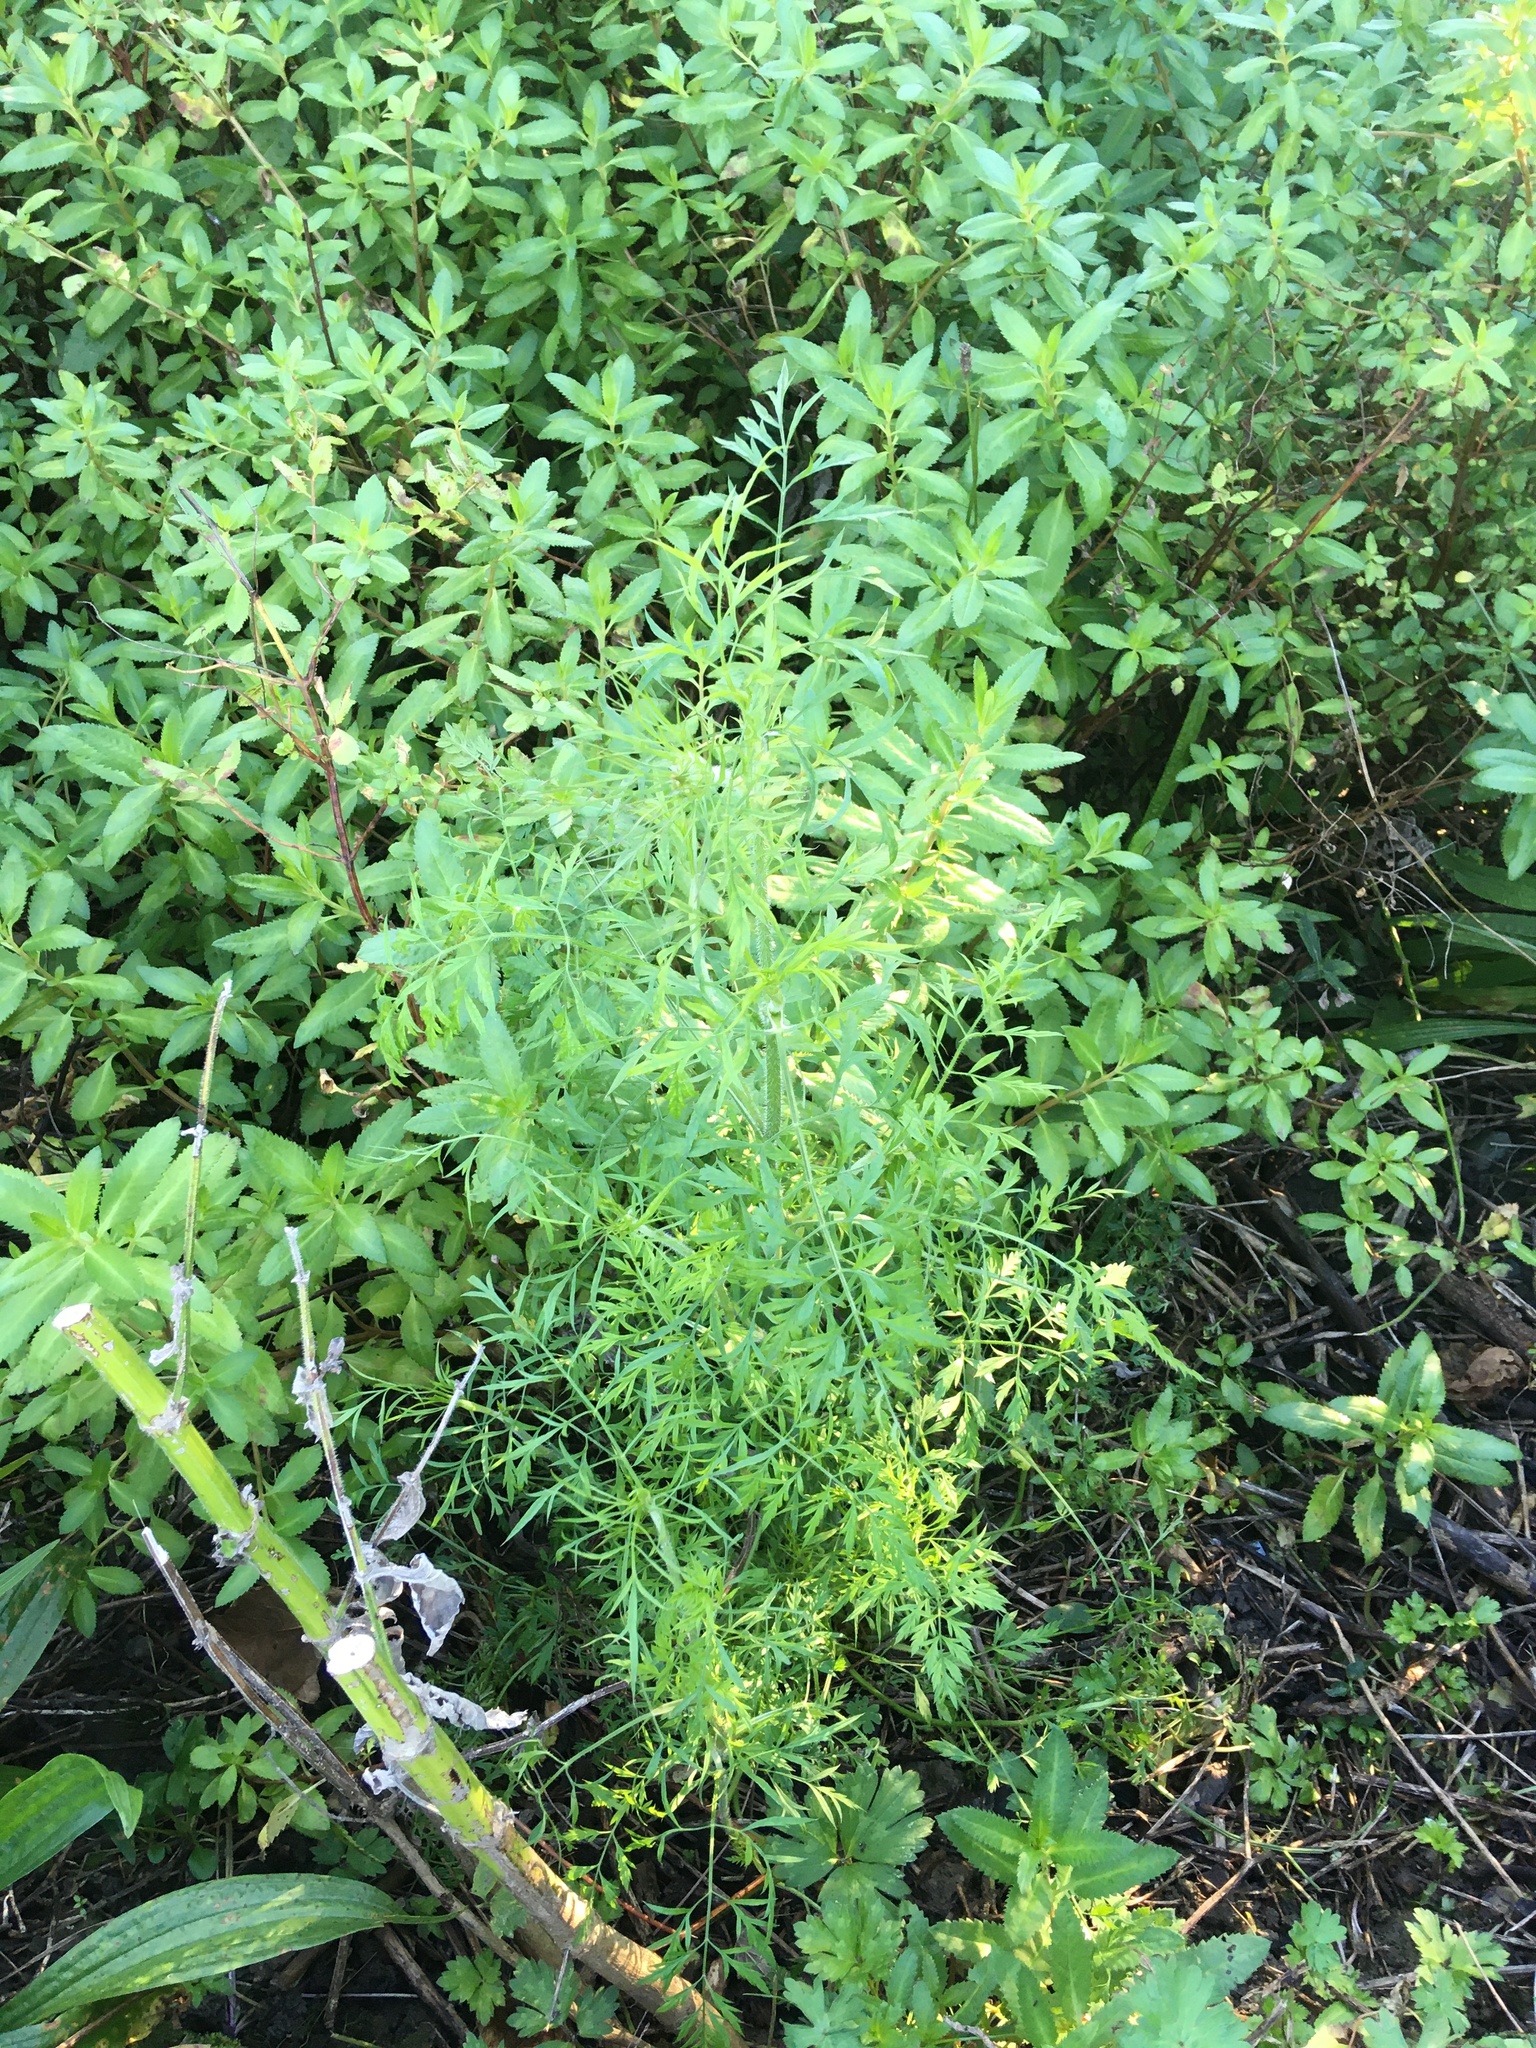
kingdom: Plantae
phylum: Tracheophyta
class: Magnoliopsida
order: Apiales
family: Apiaceae
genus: Daucus
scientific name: Daucus carota
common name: Wild carrot
